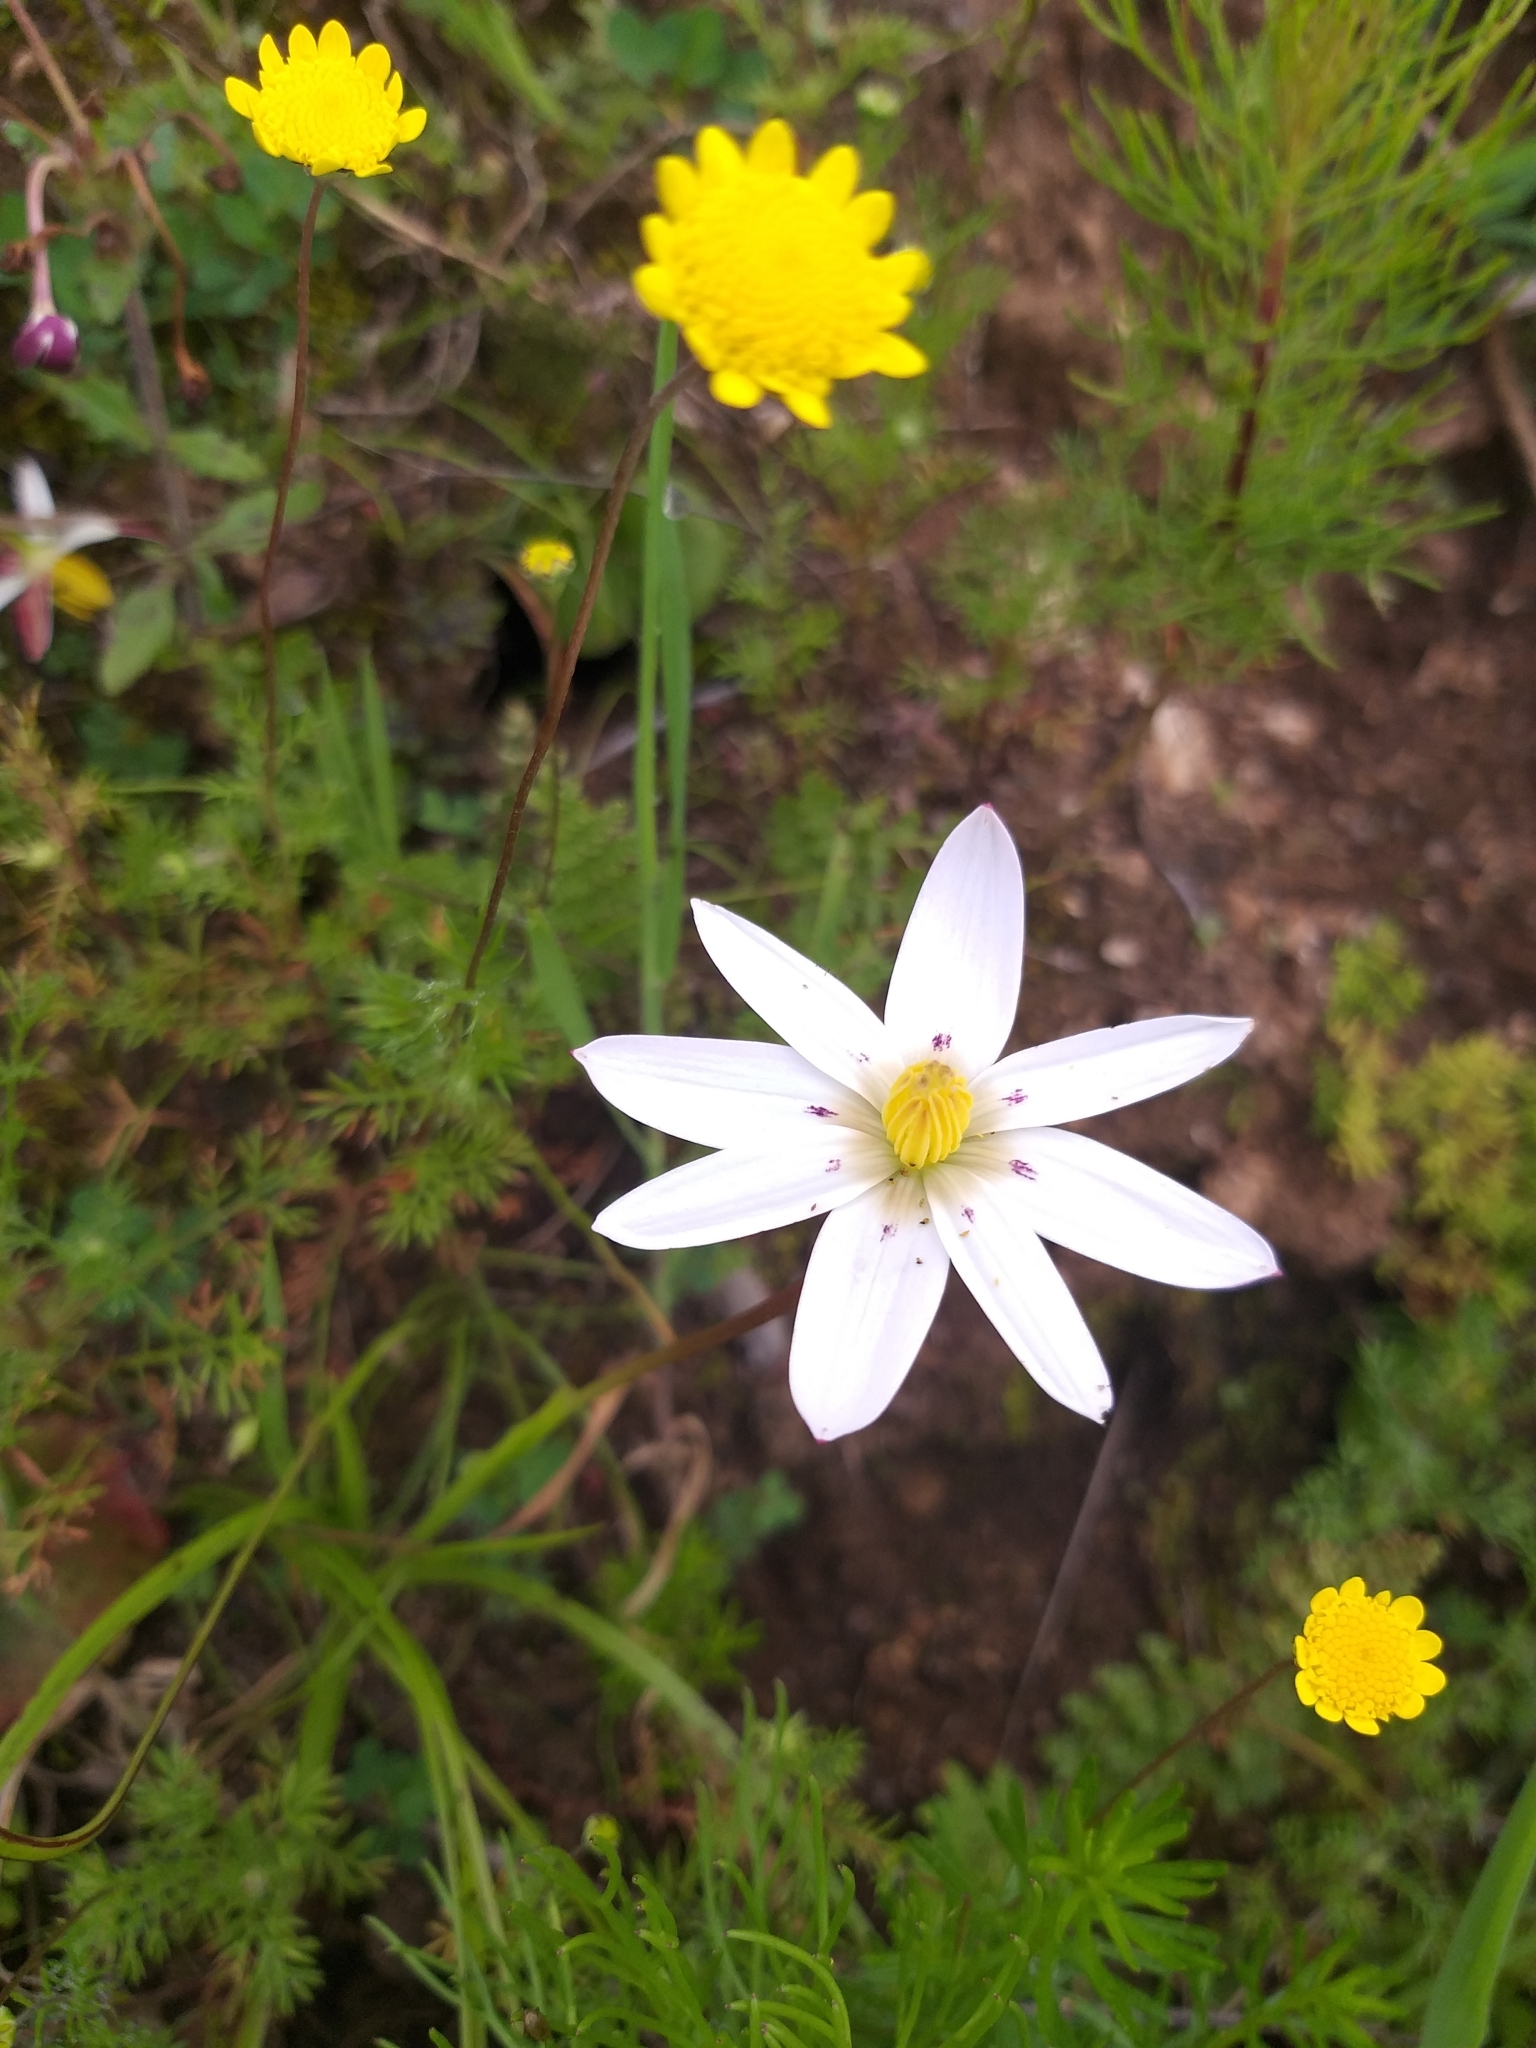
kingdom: Plantae
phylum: Tracheophyta
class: Liliopsida
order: Asparagales
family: Hypoxidaceae
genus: Pauridia
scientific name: Pauridia capensis
